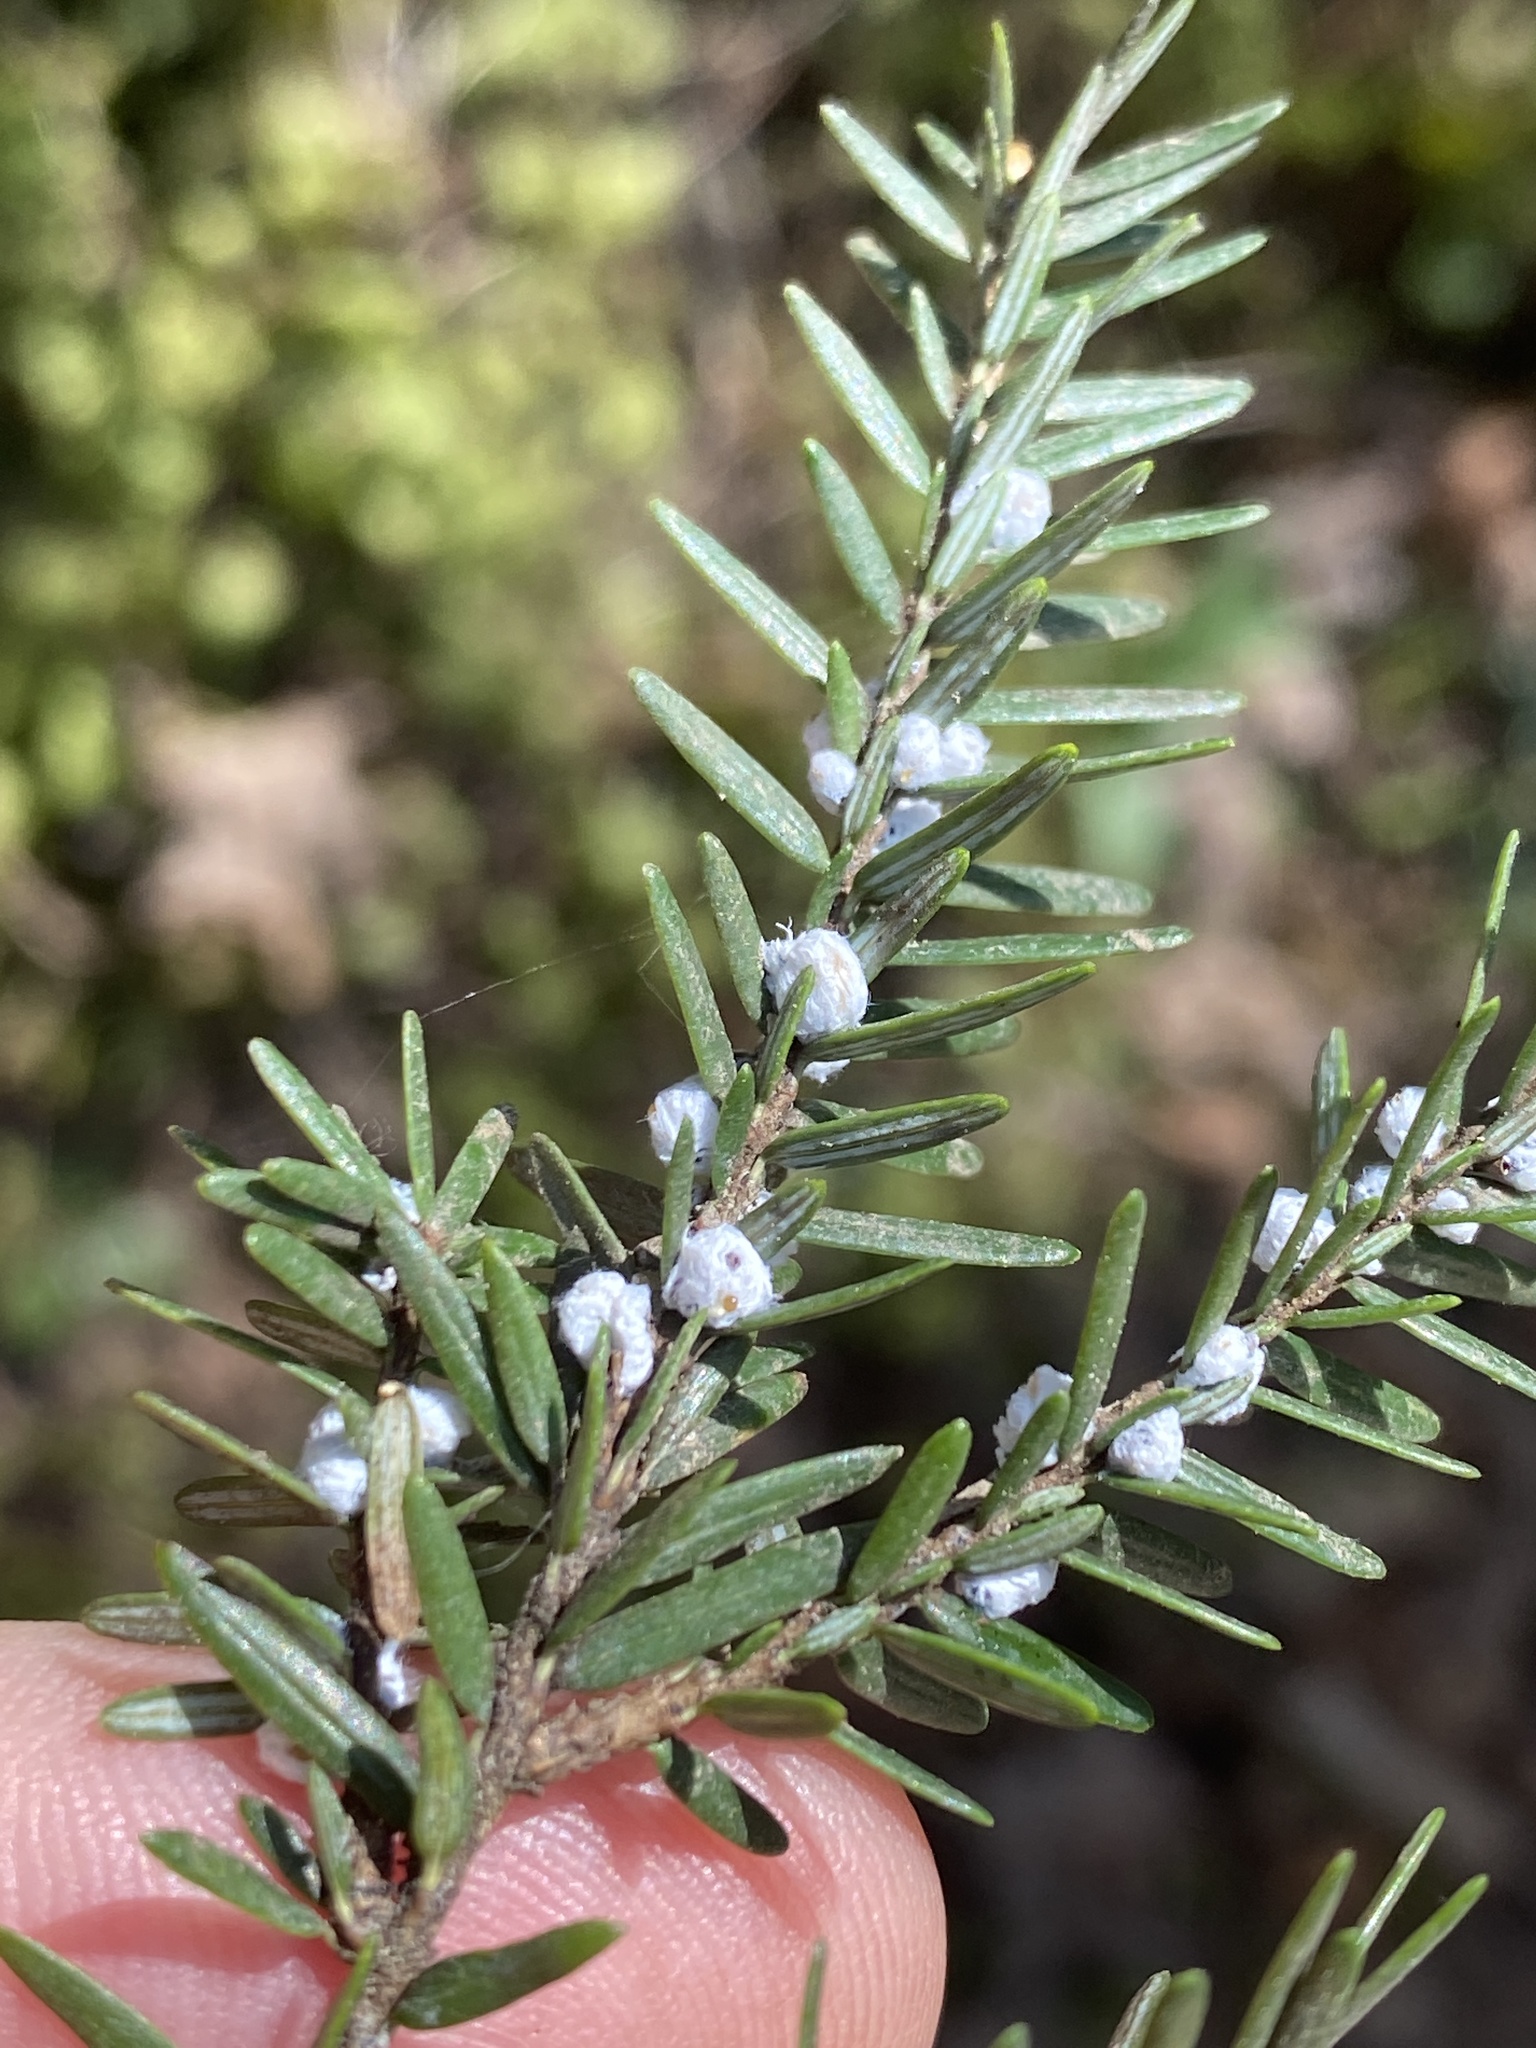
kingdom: Animalia
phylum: Arthropoda
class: Insecta
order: Hemiptera
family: Adelgidae
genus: Adelges
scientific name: Adelges tsugae
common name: Hemlock woolly adelgid
